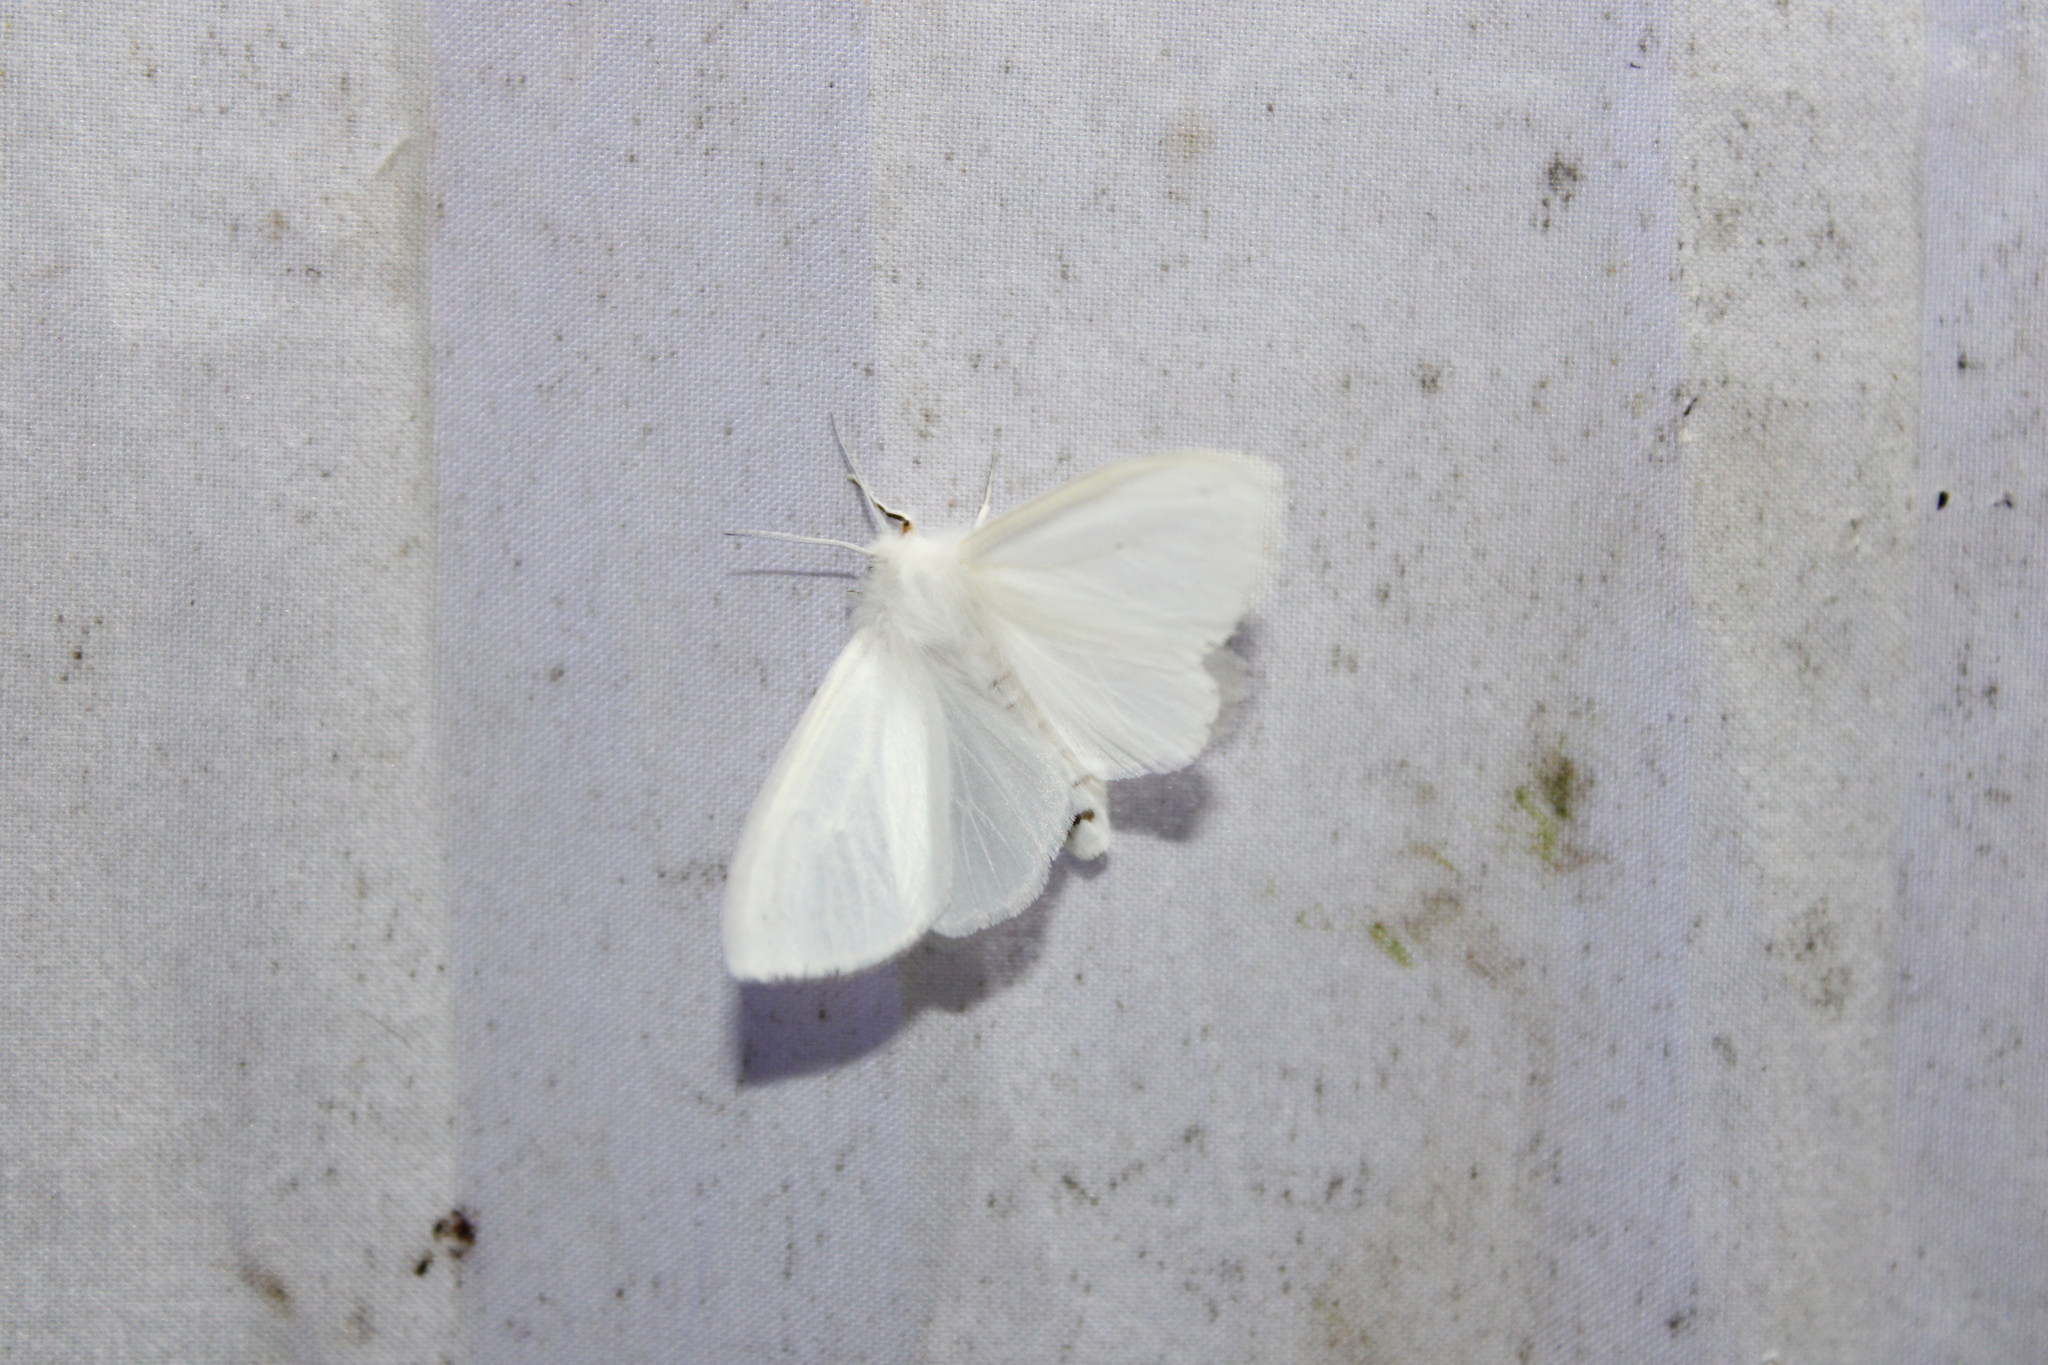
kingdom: Animalia
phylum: Arthropoda
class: Insecta
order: Lepidoptera
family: Erebidae
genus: Spilosoma
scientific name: Spilosoma congrua
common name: Agreeable tiger moth
